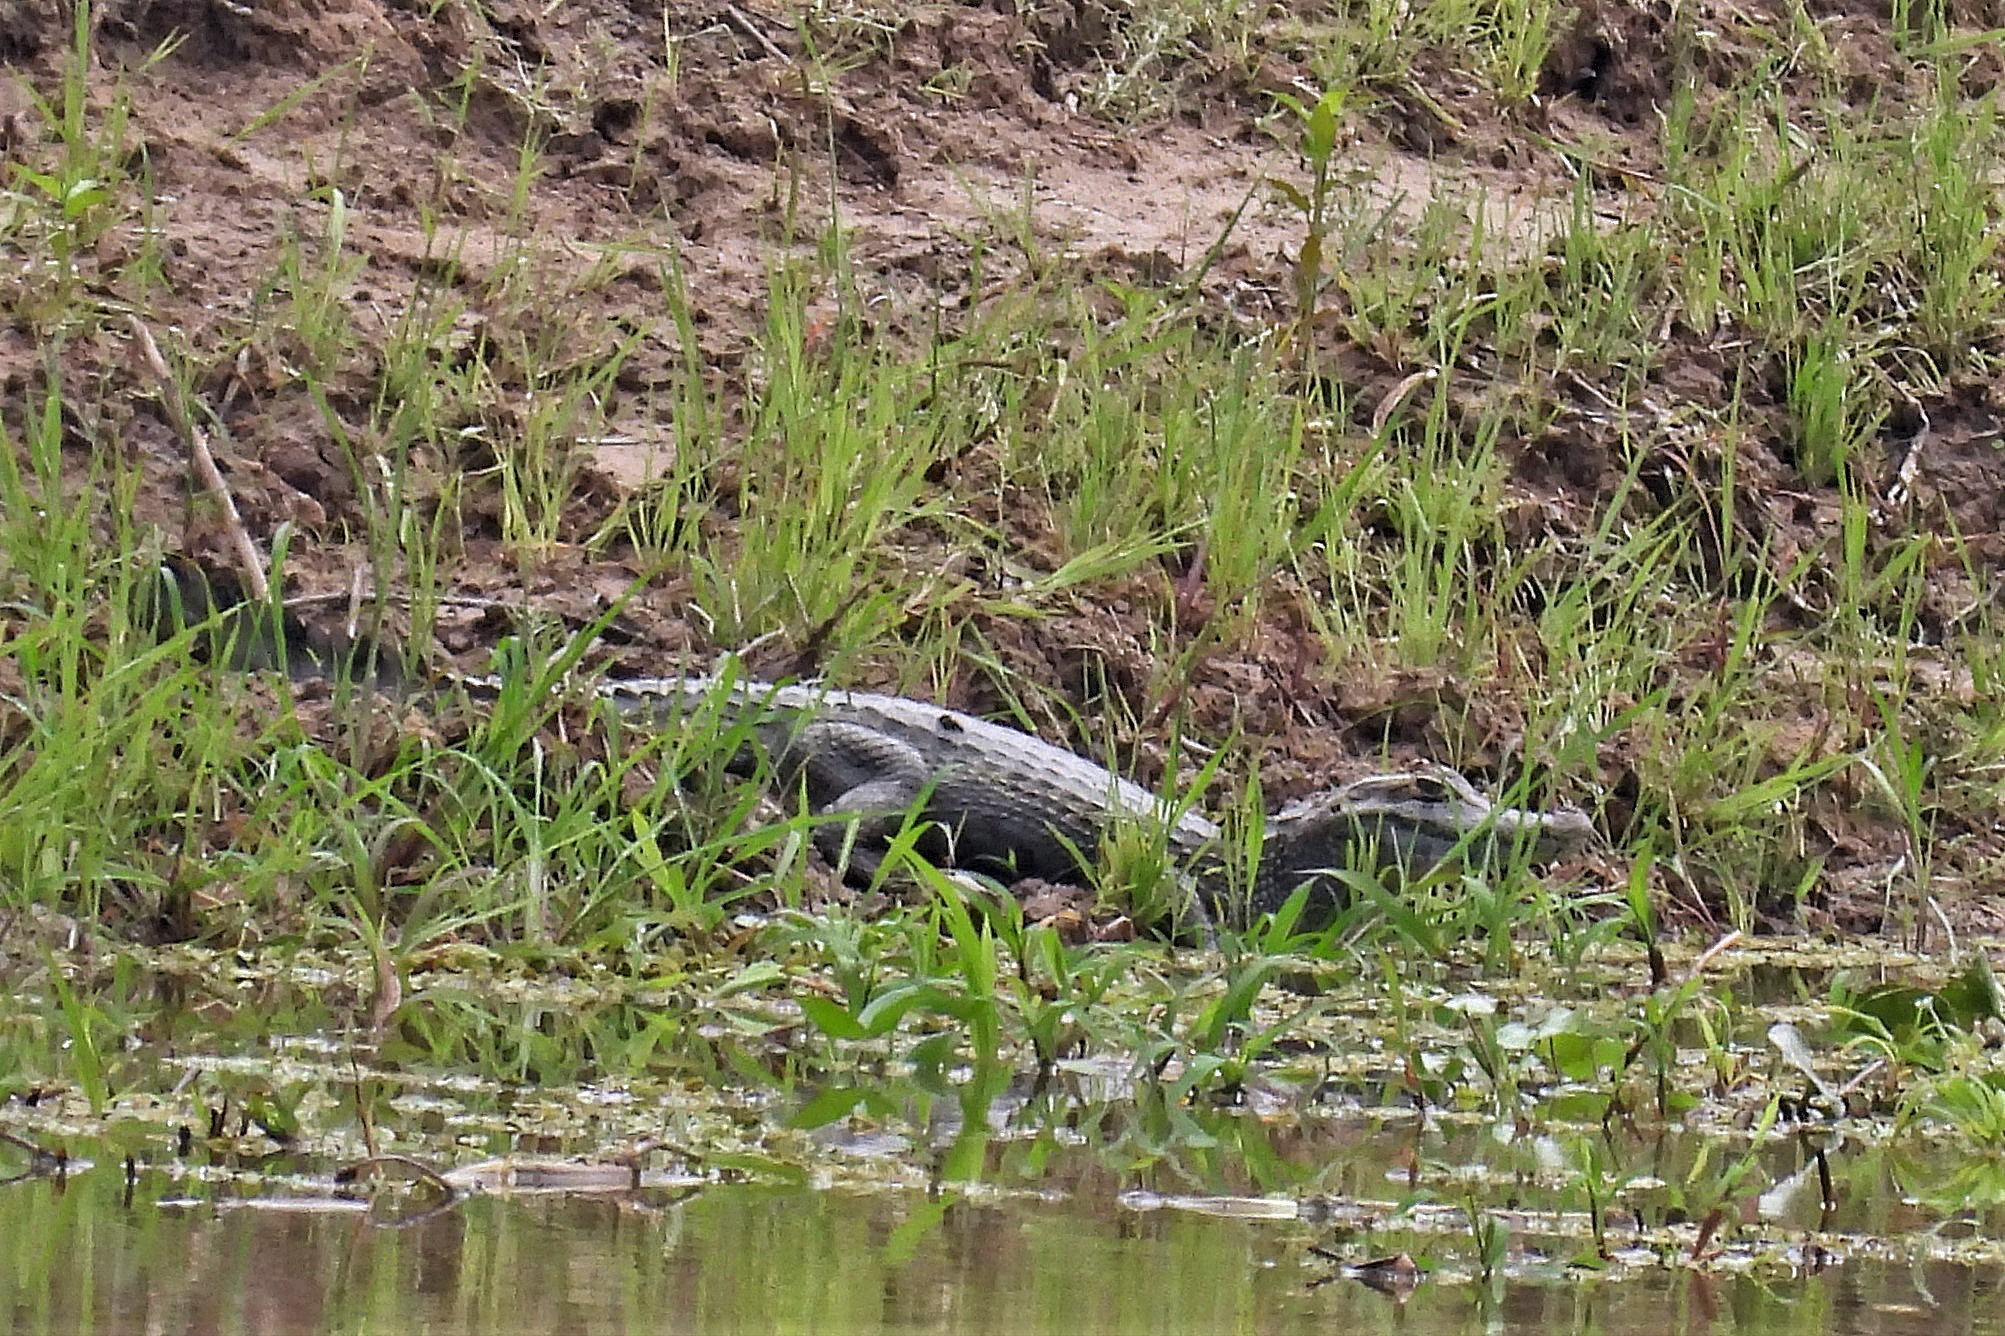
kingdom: Animalia
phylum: Chordata
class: Crocodylia
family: Alligatoridae
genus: Caiman
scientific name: Caiman yacare
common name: Yacare caiman
